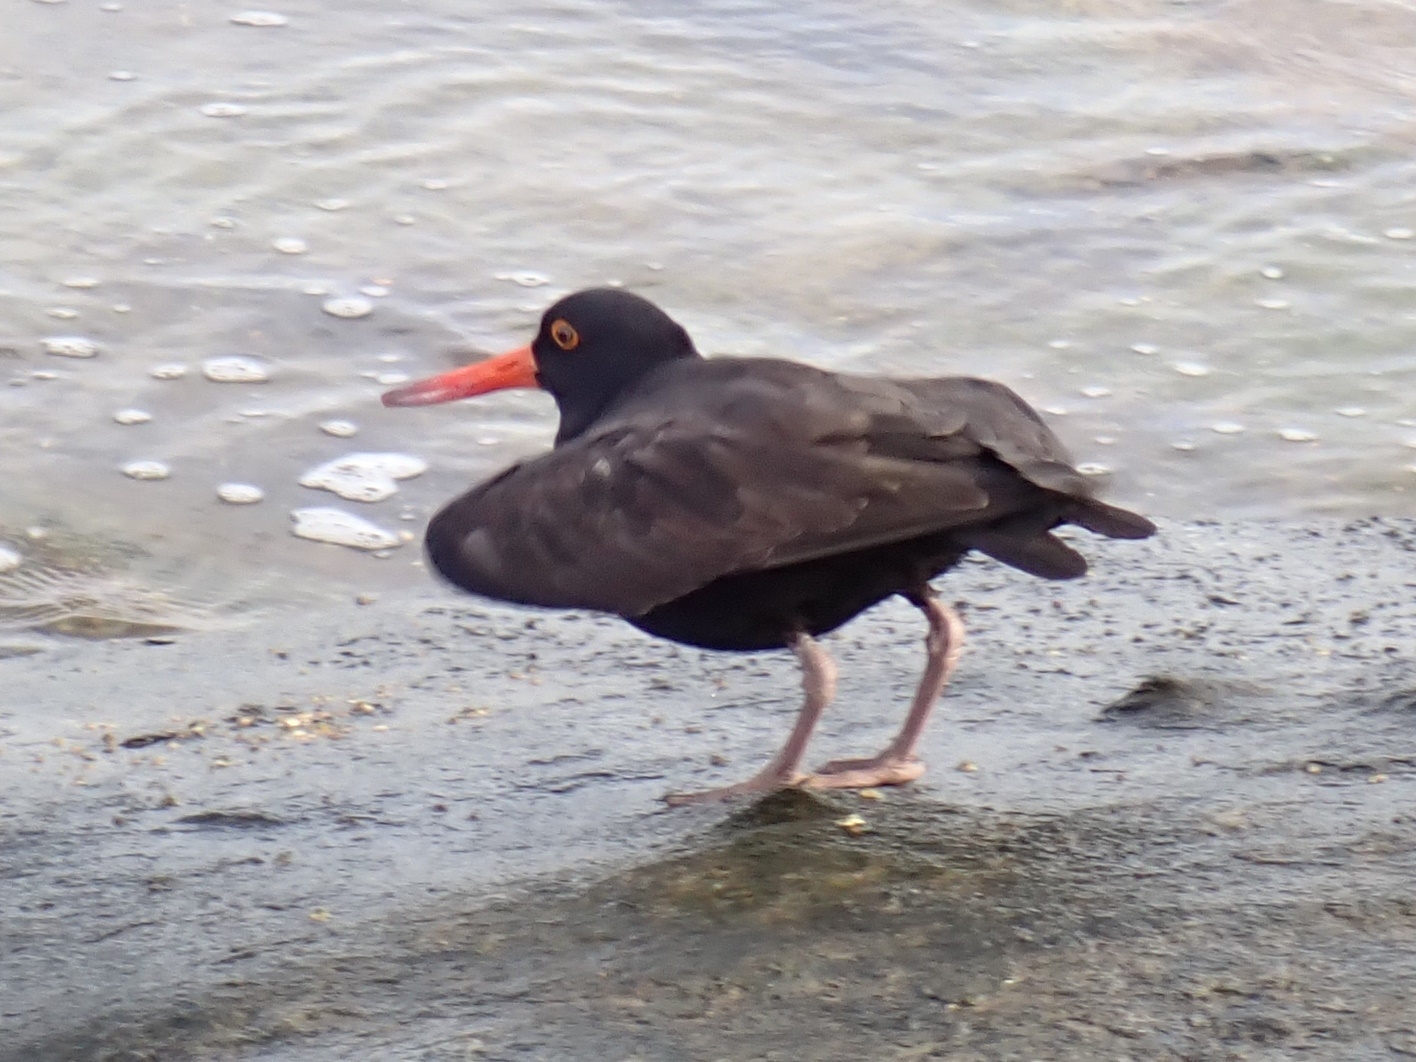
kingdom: Animalia
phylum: Chordata
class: Aves
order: Charadriiformes
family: Haematopodidae
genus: Haematopus
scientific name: Haematopus fuliginosus
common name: Sooty oystercatcher
